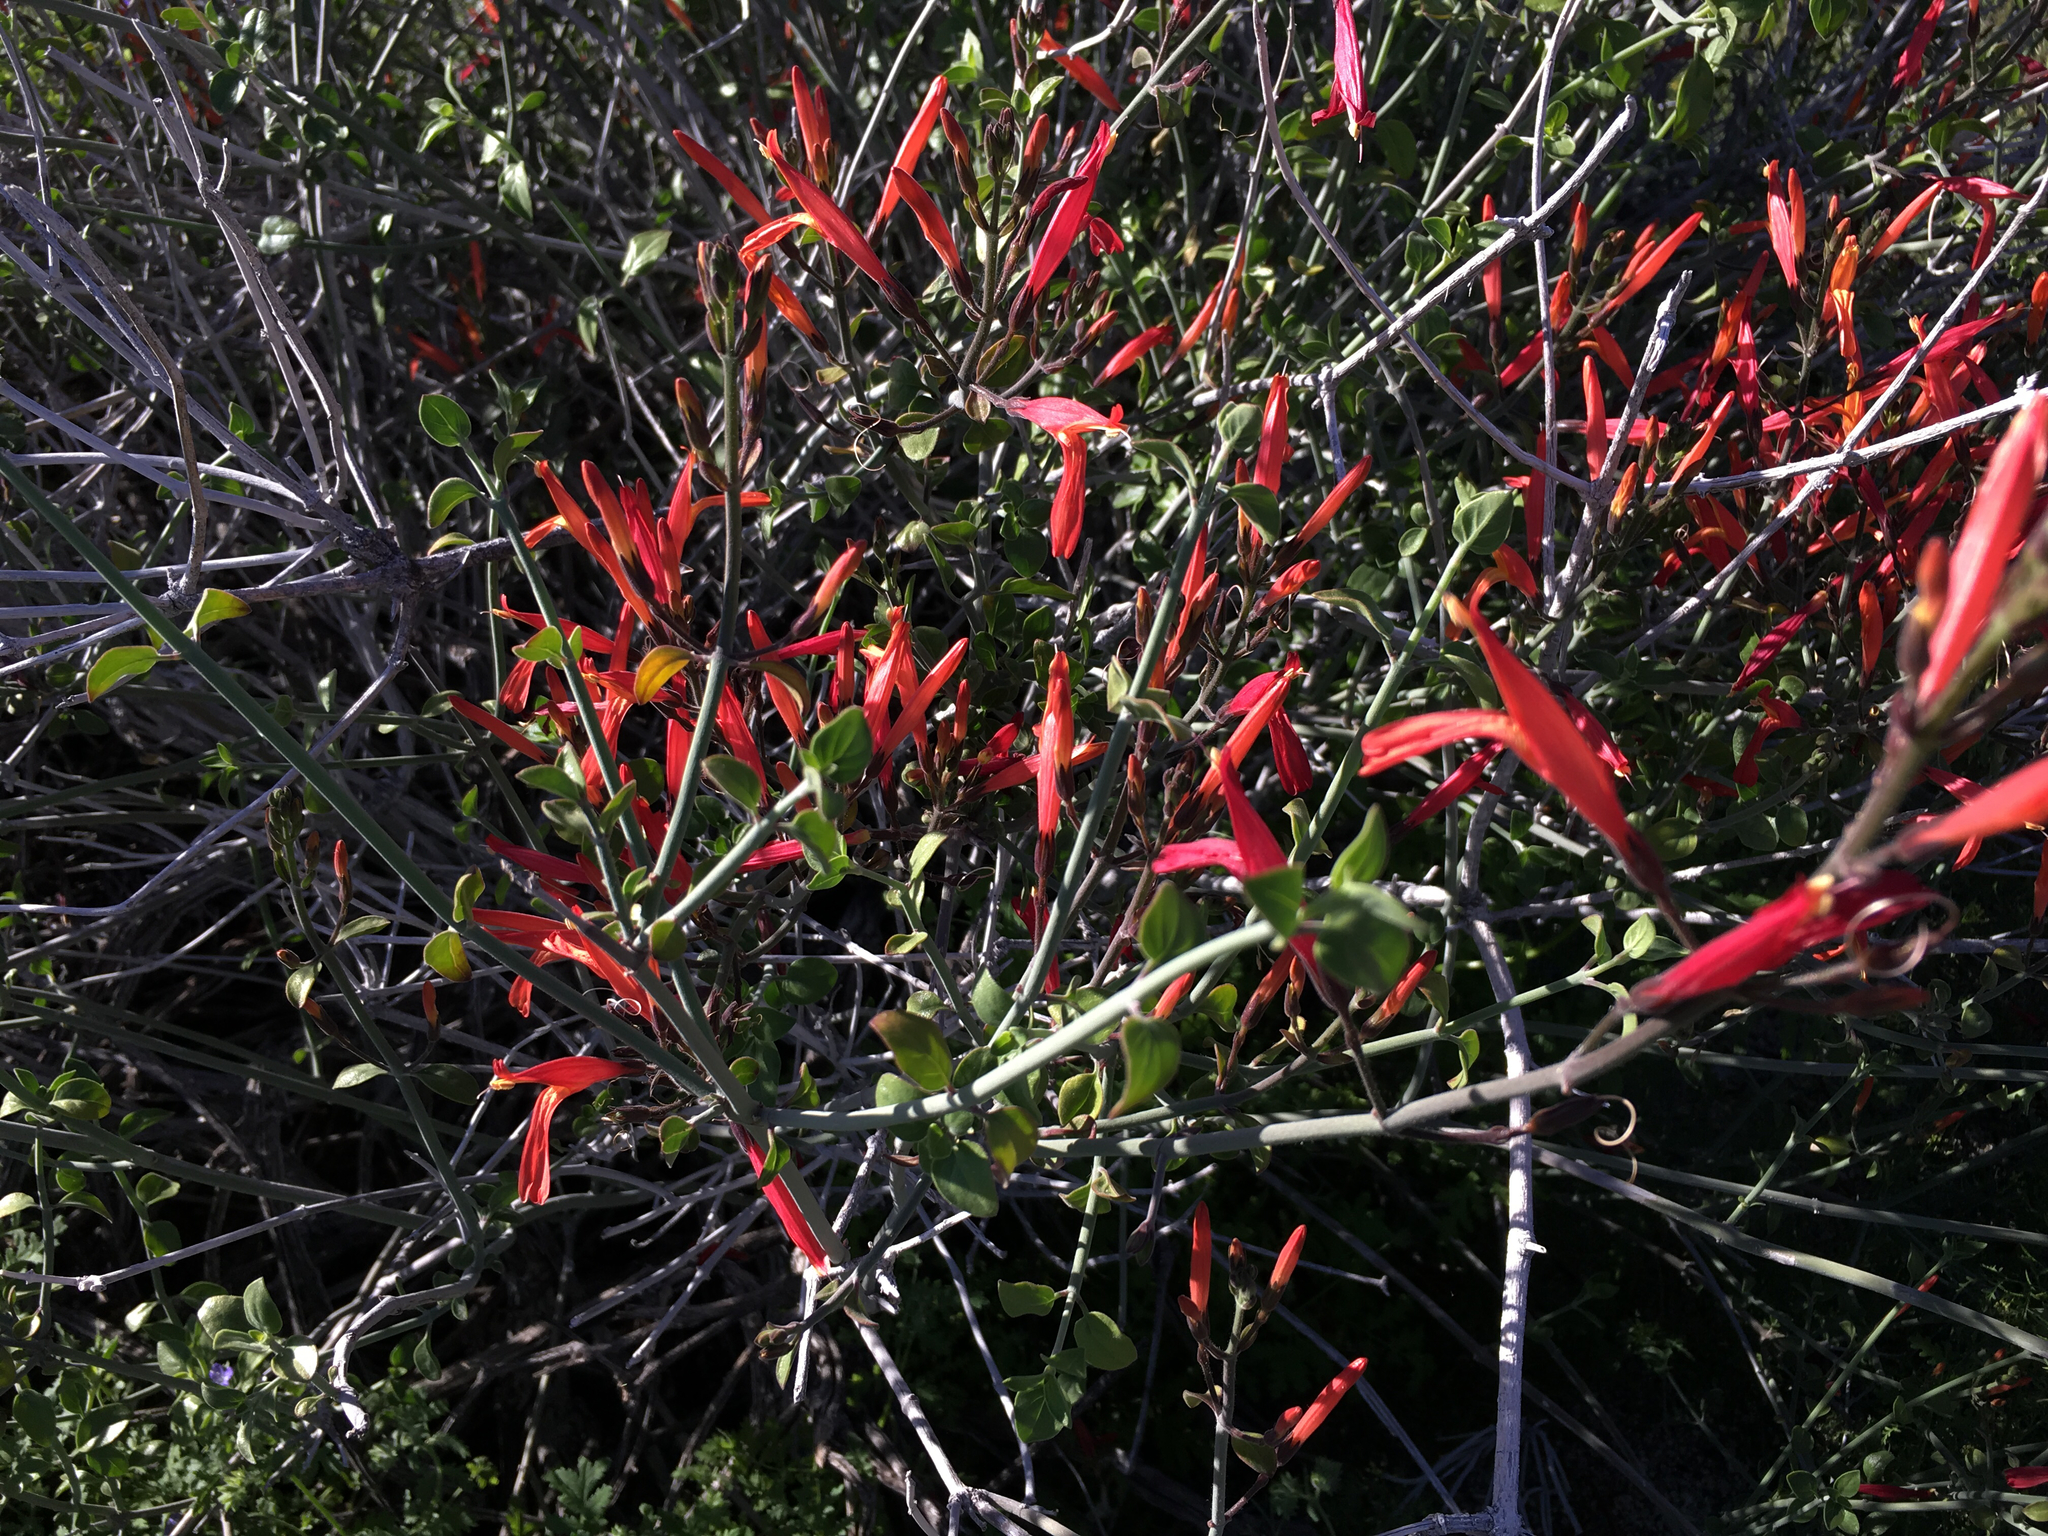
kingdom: Plantae
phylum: Tracheophyta
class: Magnoliopsida
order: Lamiales
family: Acanthaceae
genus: Justicia
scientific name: Justicia californica
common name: Chuparosa-honeysuckle
